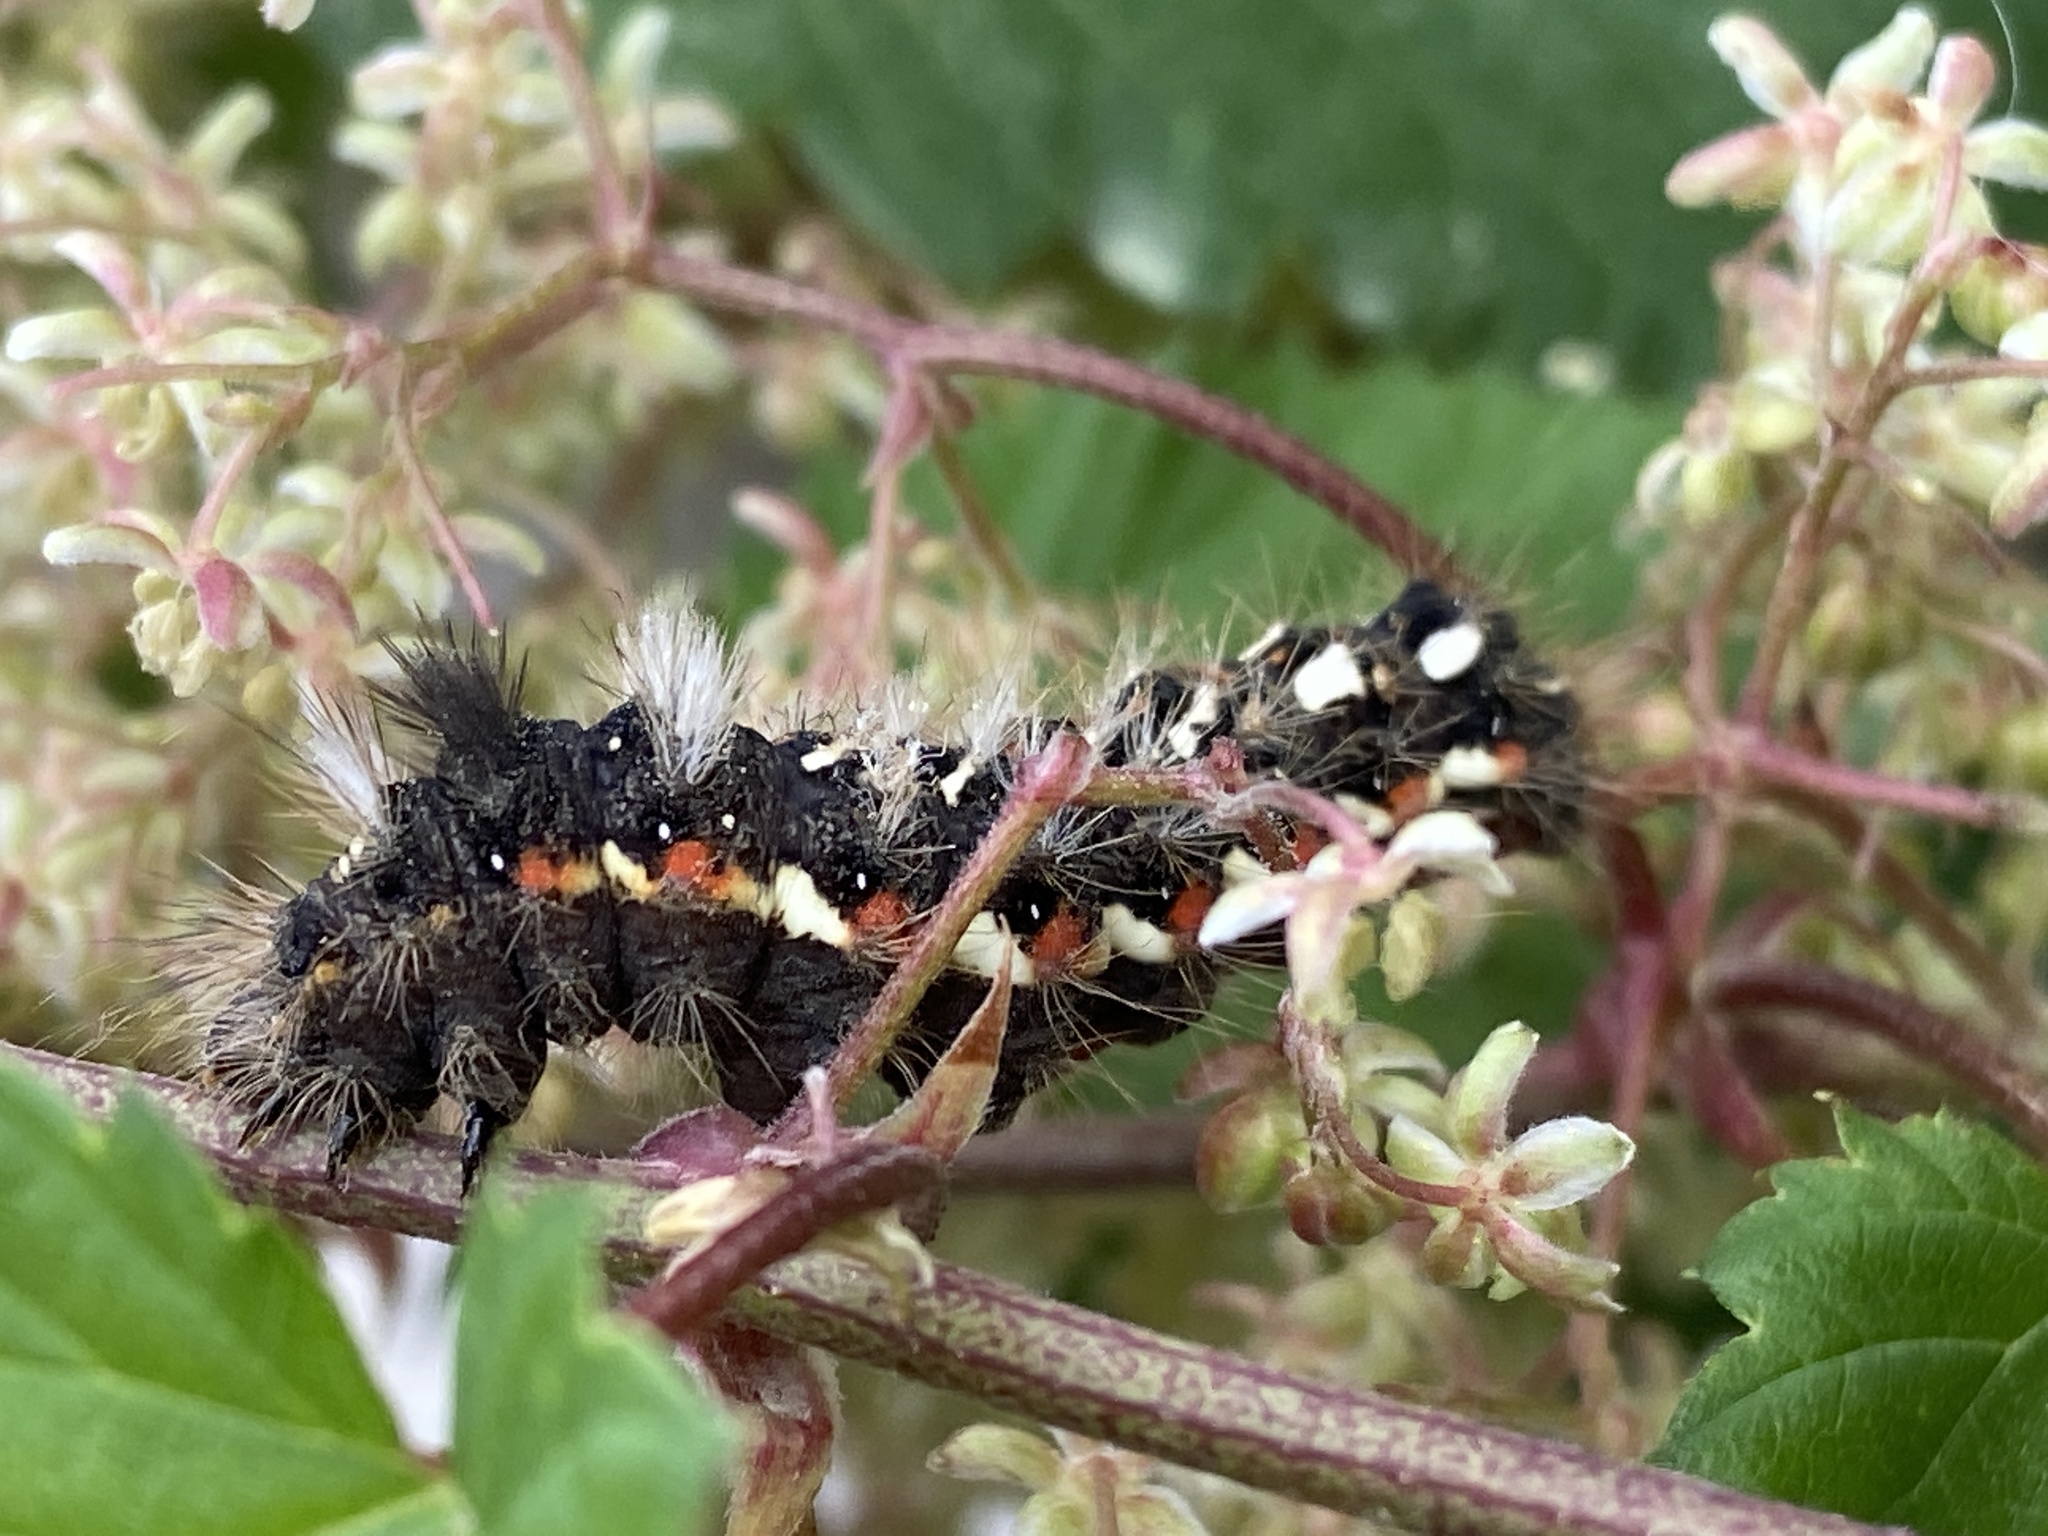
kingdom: Animalia
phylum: Arthropoda
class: Insecta
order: Lepidoptera
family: Noctuidae
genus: Acronicta
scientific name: Acronicta rumicis
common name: Knot grass
